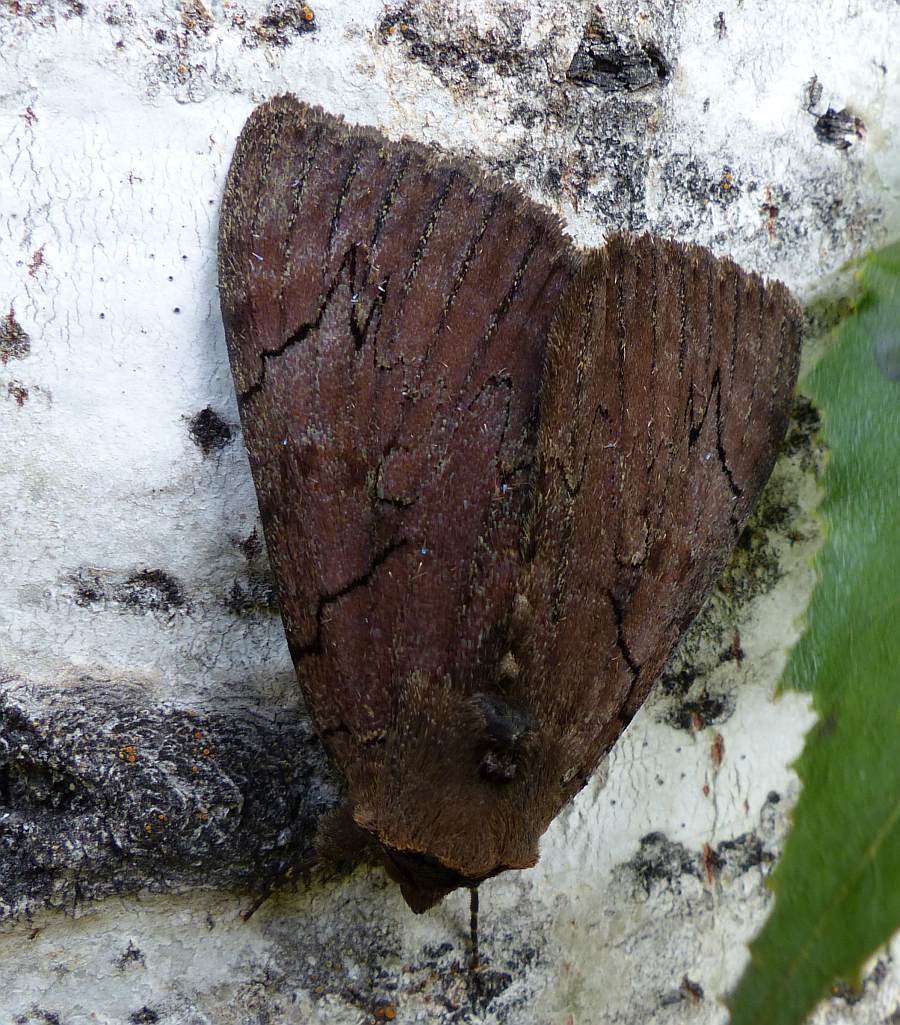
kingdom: Animalia
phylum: Arthropoda
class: Insecta
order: Lepidoptera
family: Erebidae
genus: Catocala
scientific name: Catocala cara
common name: Darling underwing
